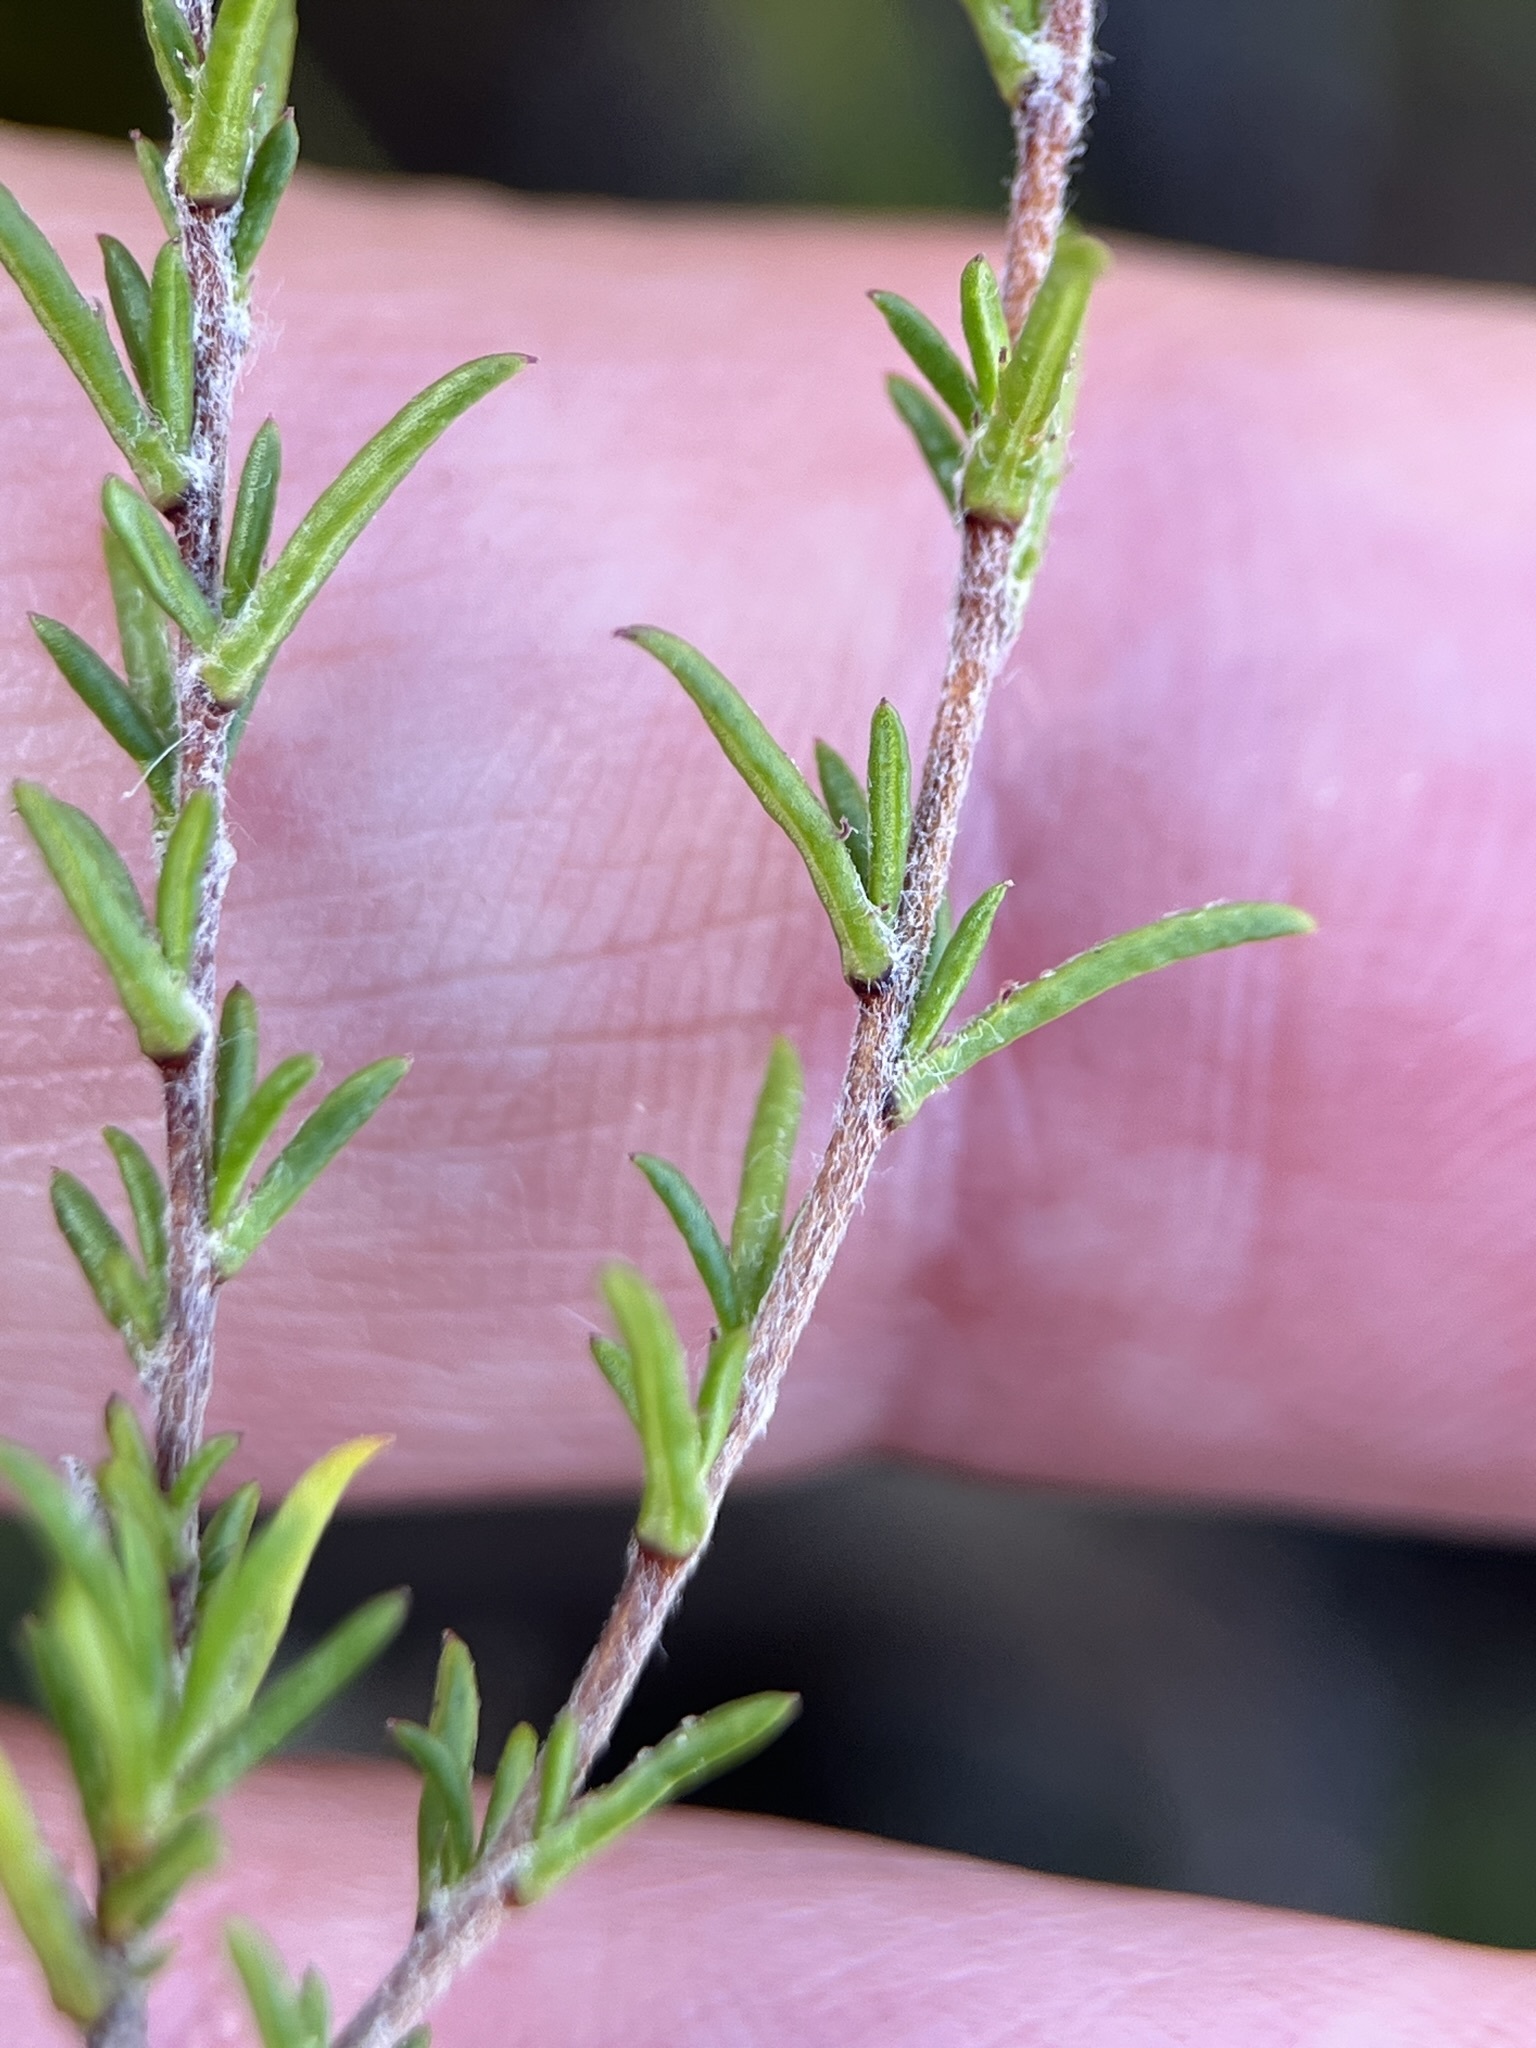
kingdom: Plantae
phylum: Tracheophyta
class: Magnoliopsida
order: Asterales
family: Campanulaceae
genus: Wahlenbergia
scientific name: Wahlenbergia cinerea
